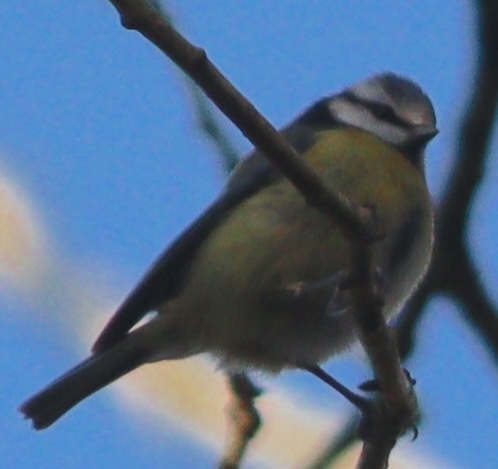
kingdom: Animalia
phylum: Chordata
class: Aves
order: Passeriformes
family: Paridae
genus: Cyanistes
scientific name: Cyanistes caeruleus
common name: Eurasian blue tit
